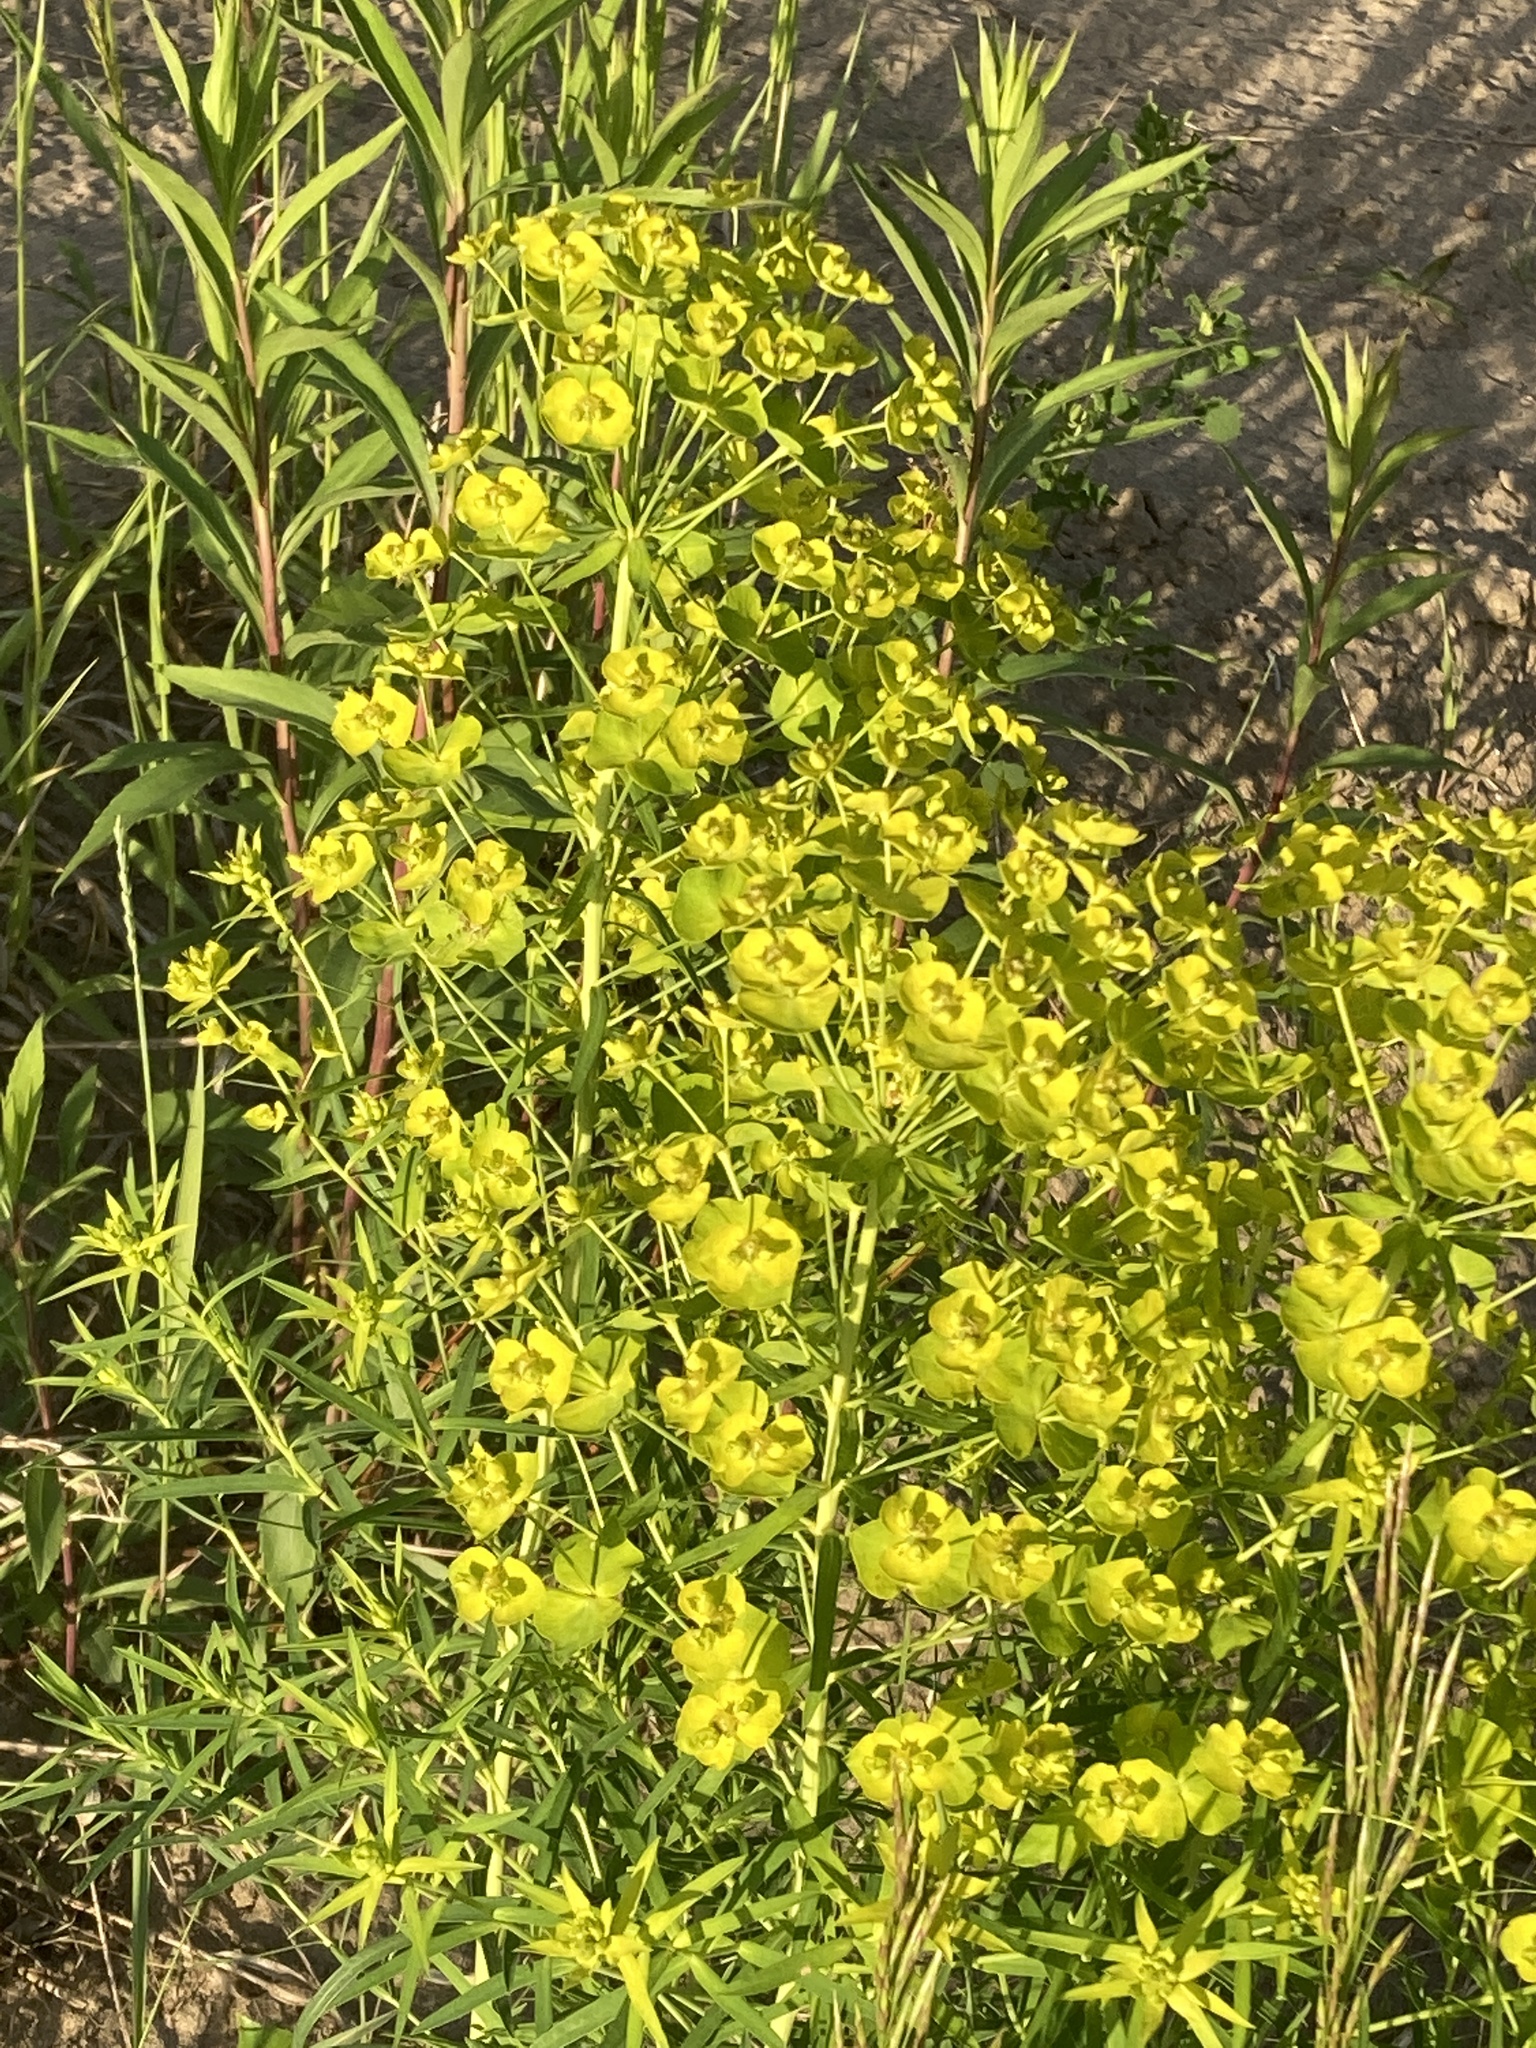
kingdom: Plantae
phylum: Tracheophyta
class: Magnoliopsida
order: Malpighiales
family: Euphorbiaceae
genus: Euphorbia
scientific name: Euphorbia virgata
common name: Leafy spurge
